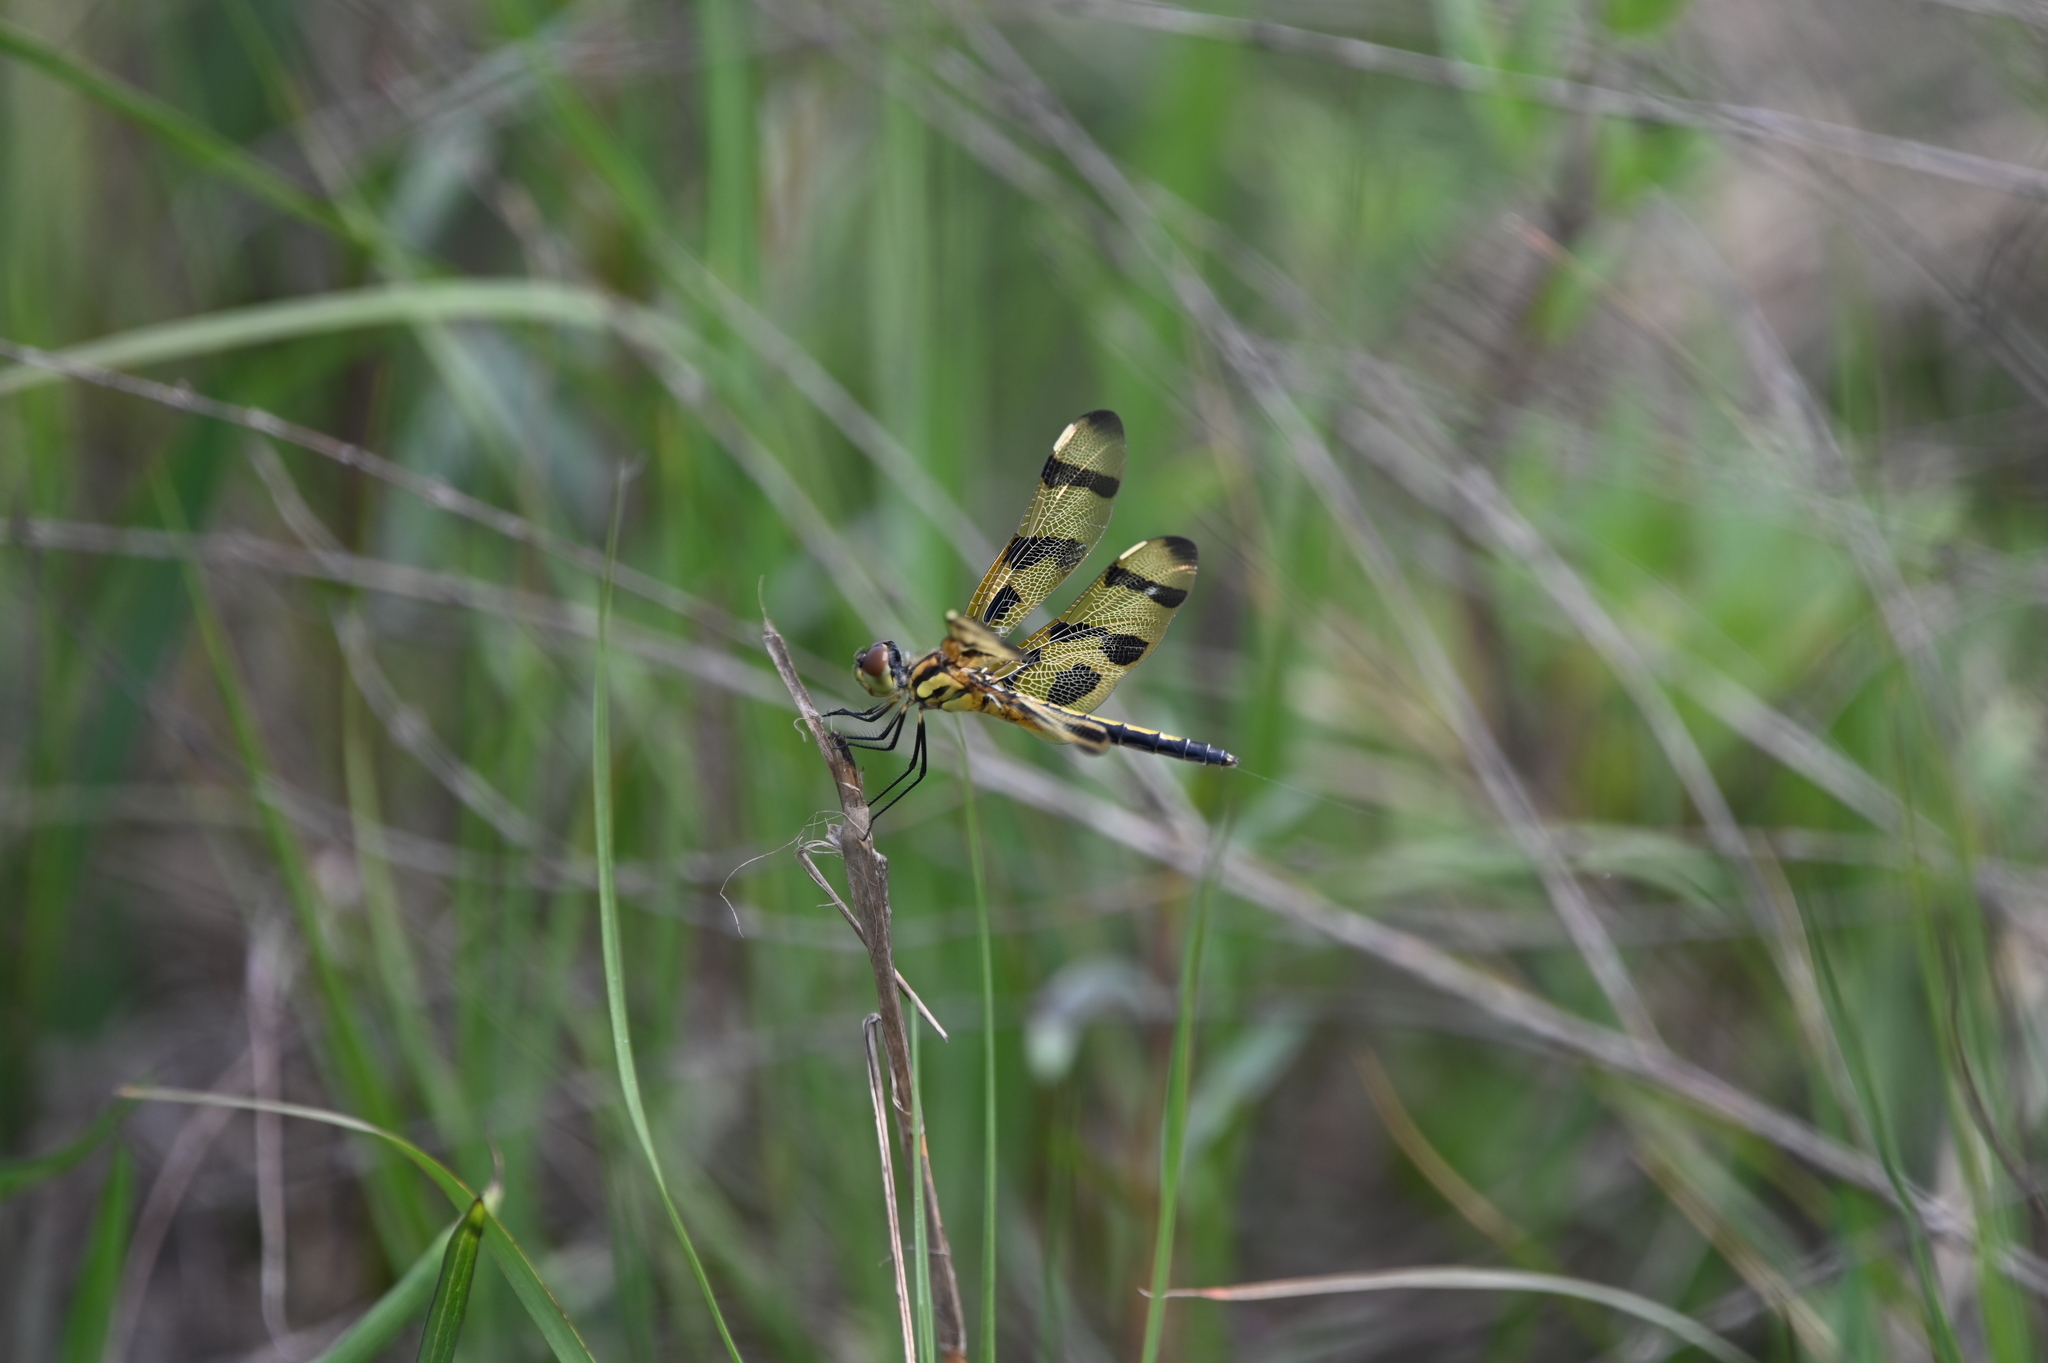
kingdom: Animalia
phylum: Arthropoda
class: Insecta
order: Odonata
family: Libellulidae
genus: Celithemis
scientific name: Celithemis eponina
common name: Halloween pennant
